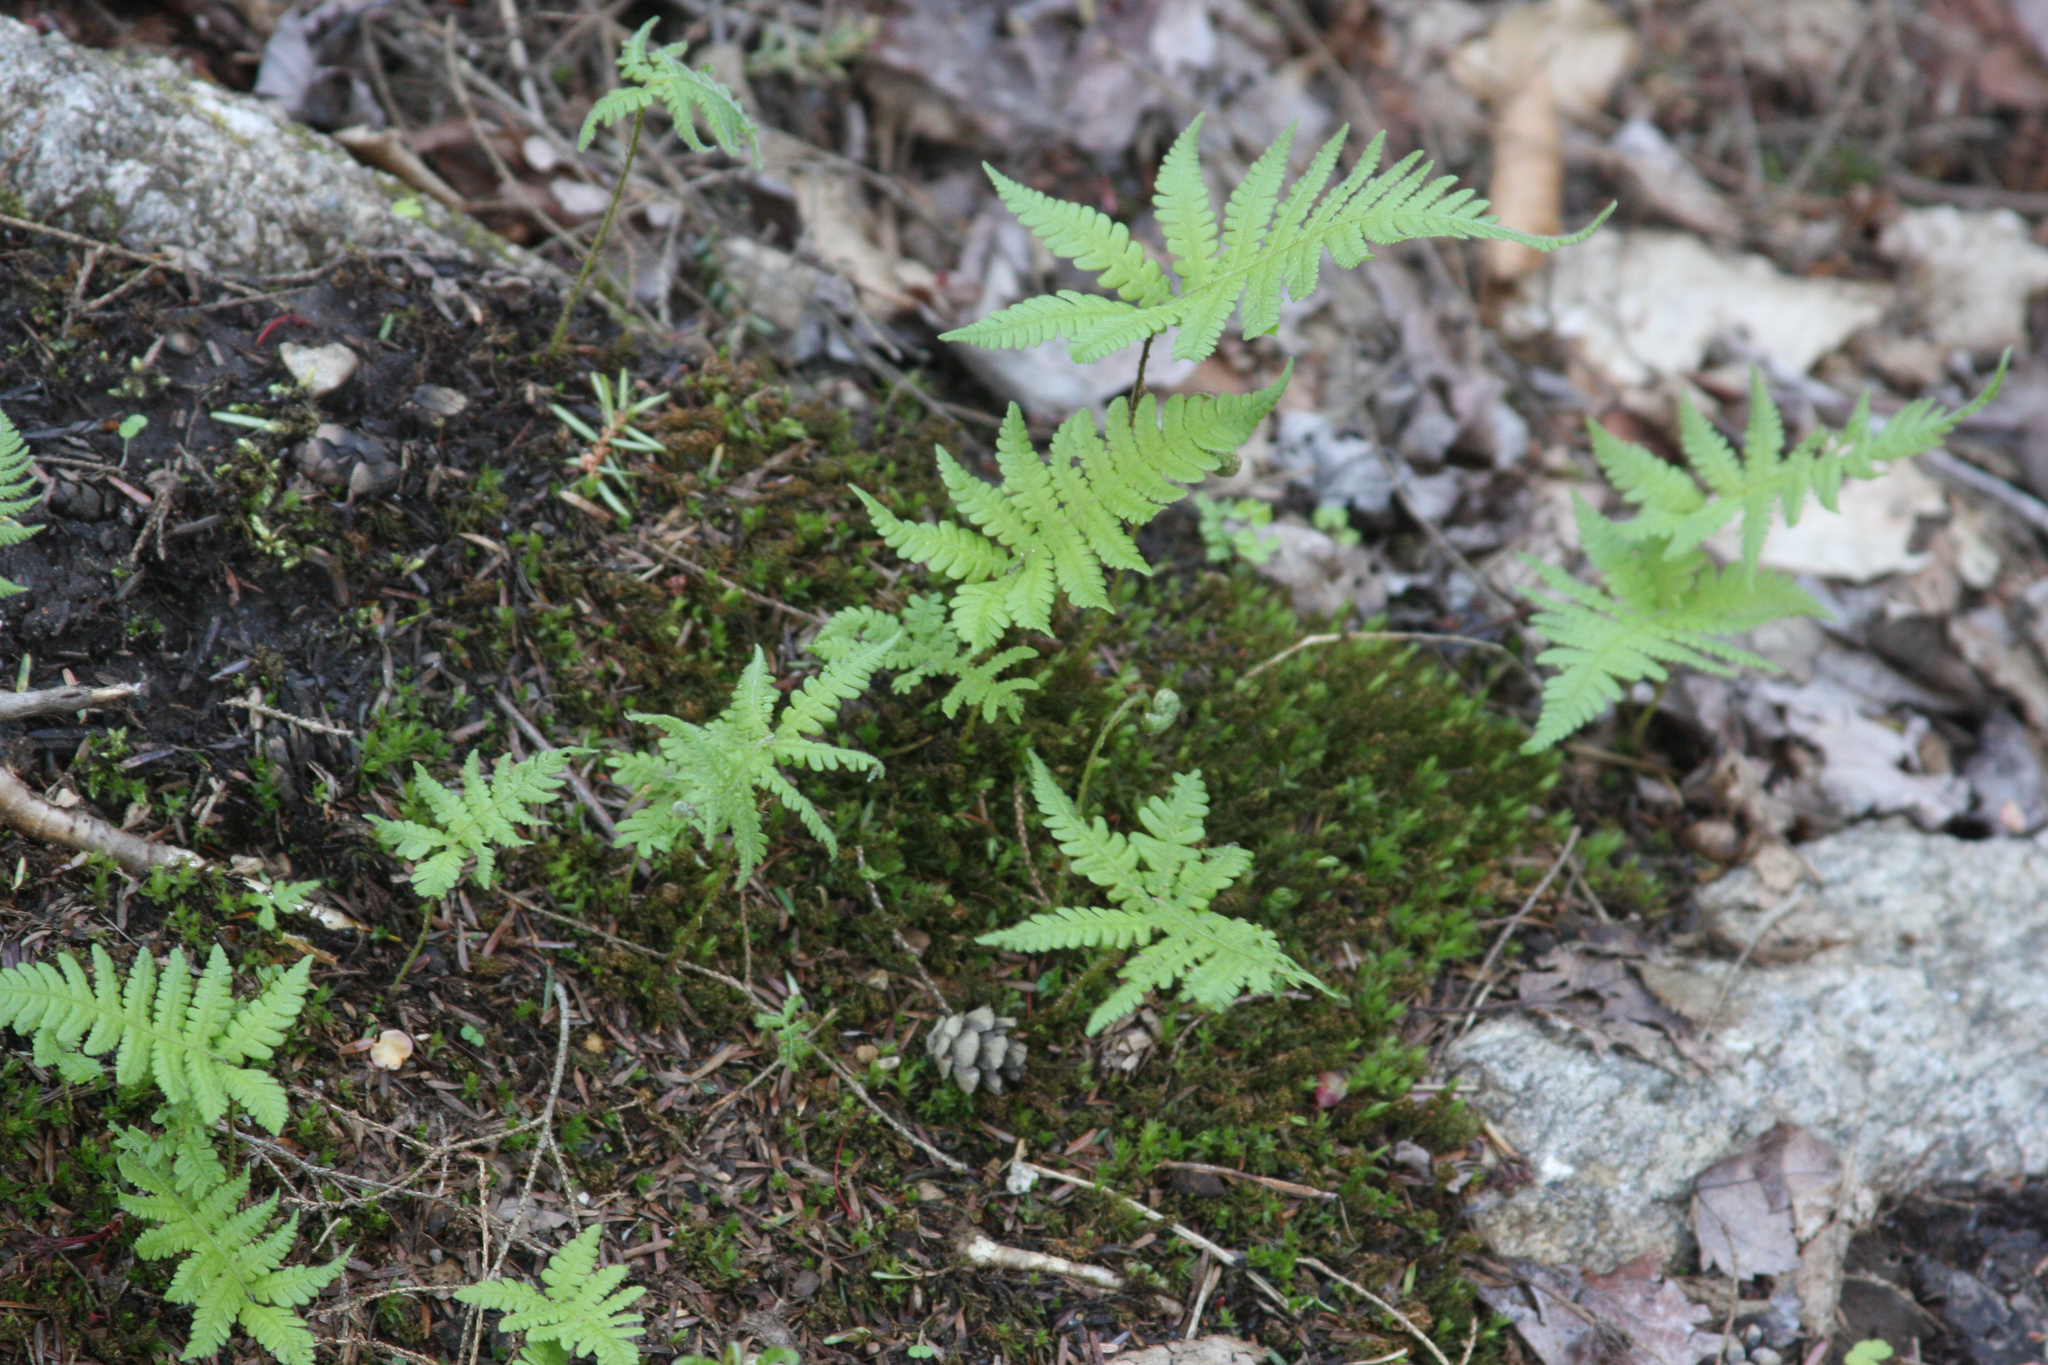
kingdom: Plantae
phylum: Tracheophyta
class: Polypodiopsida
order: Polypodiales
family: Thelypteridaceae
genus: Phegopteris
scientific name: Phegopteris connectilis
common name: Beech fern
